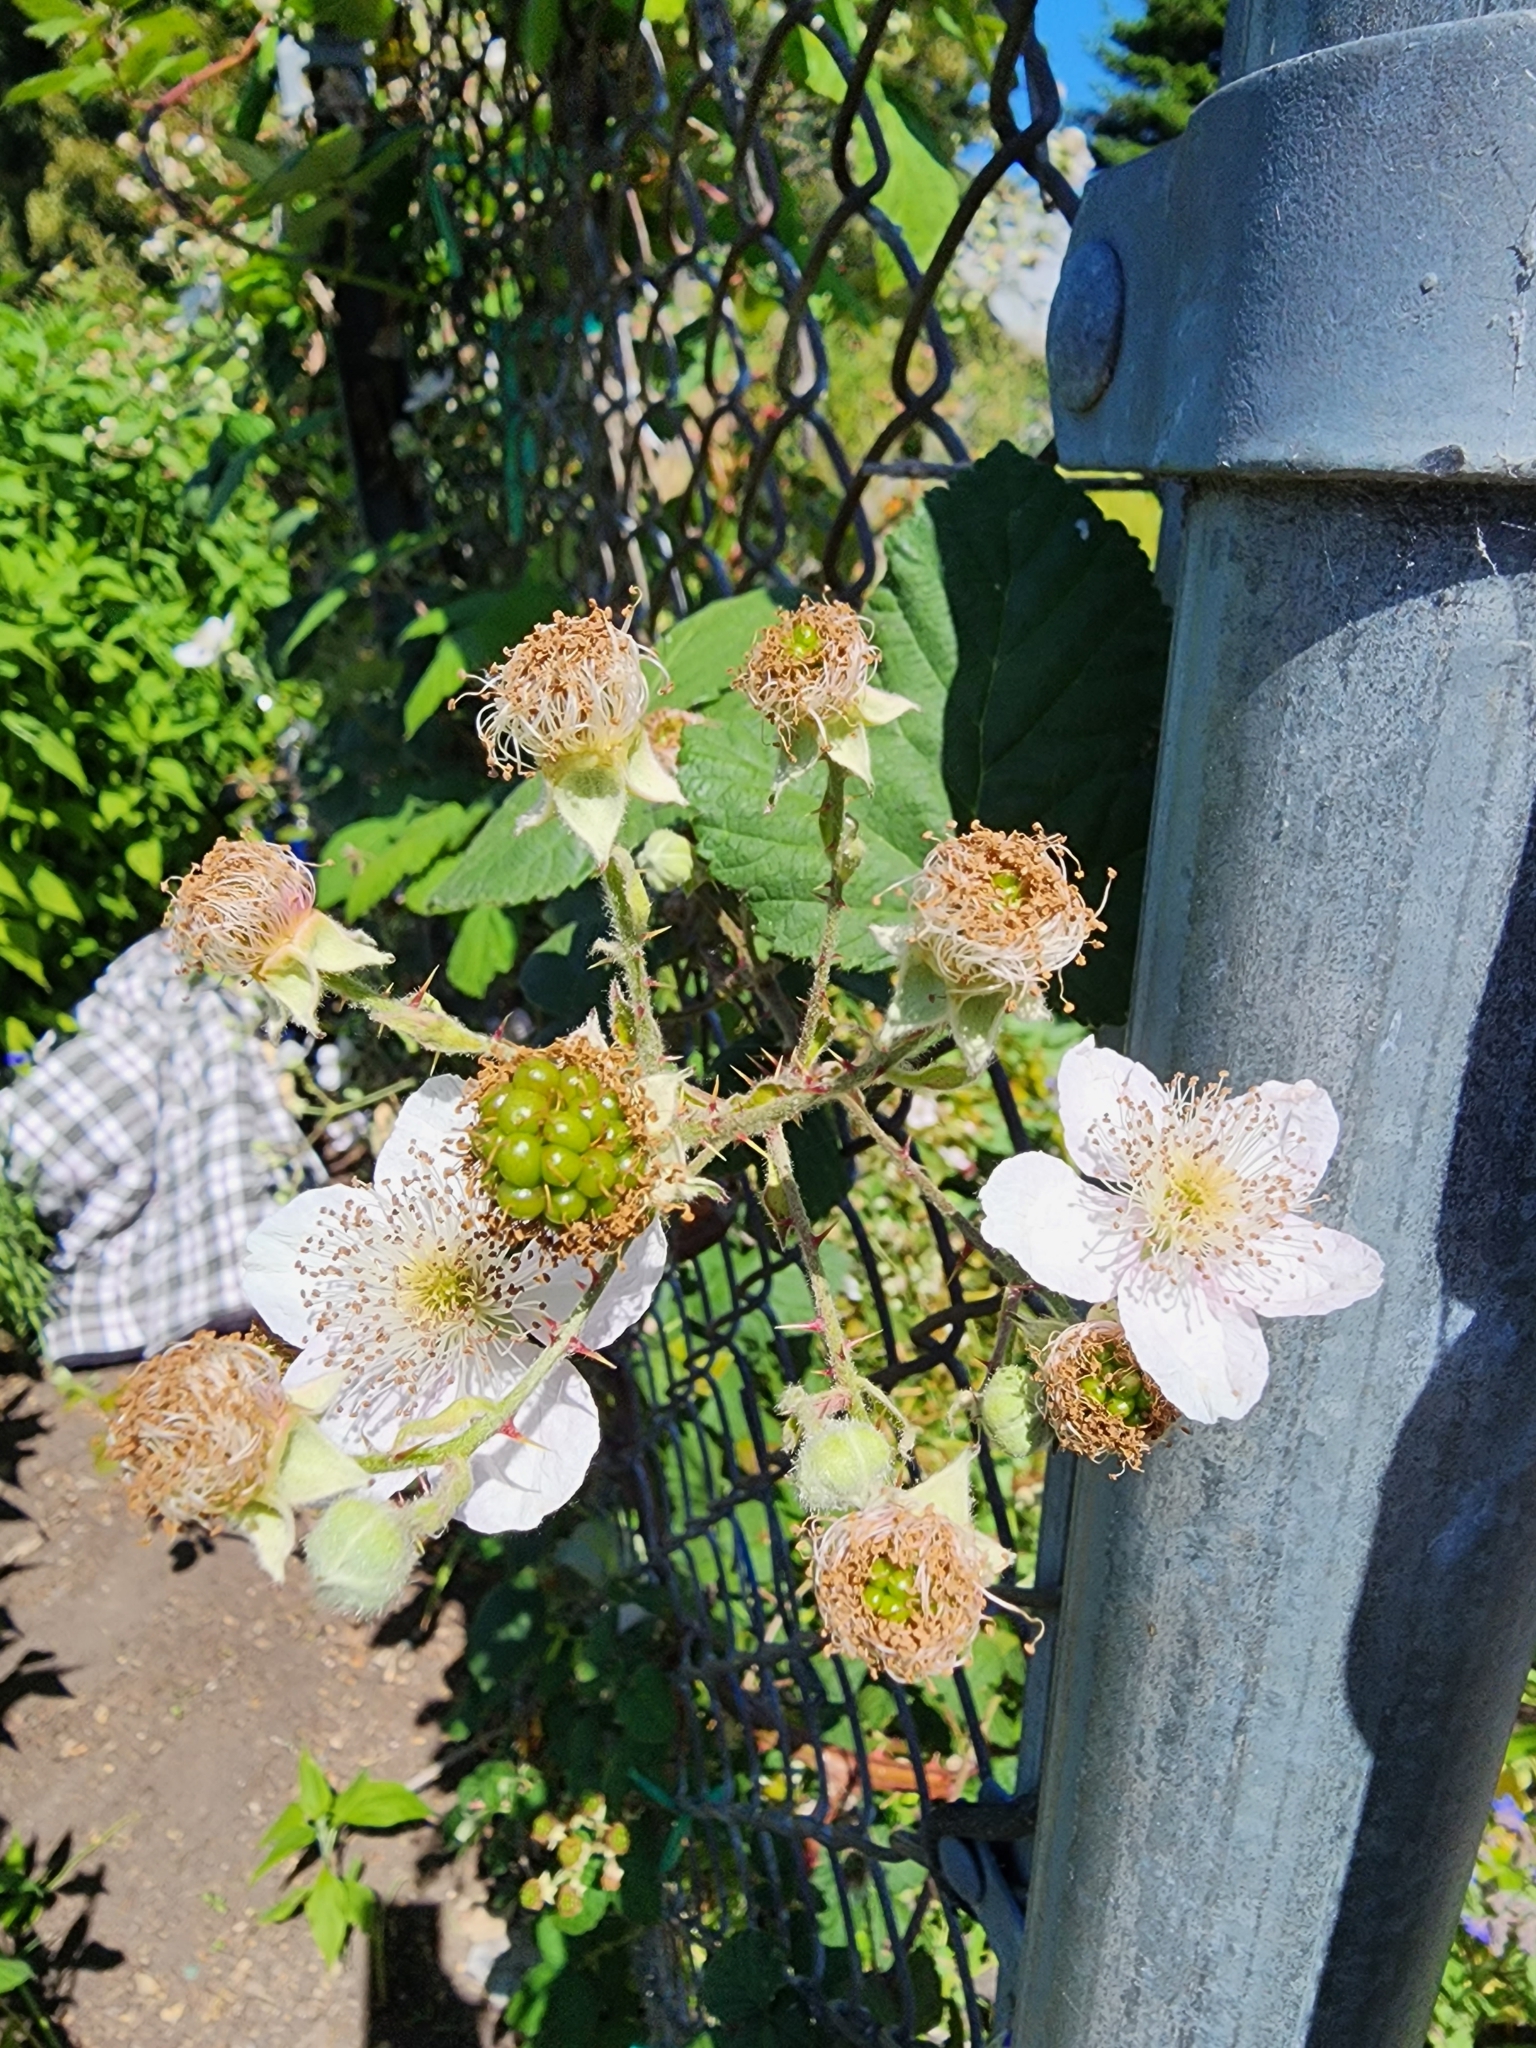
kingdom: Plantae
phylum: Tracheophyta
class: Magnoliopsida
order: Rosales
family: Rosaceae
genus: Rubus
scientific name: Rubus armeniacus
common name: Himalayan blackberry
